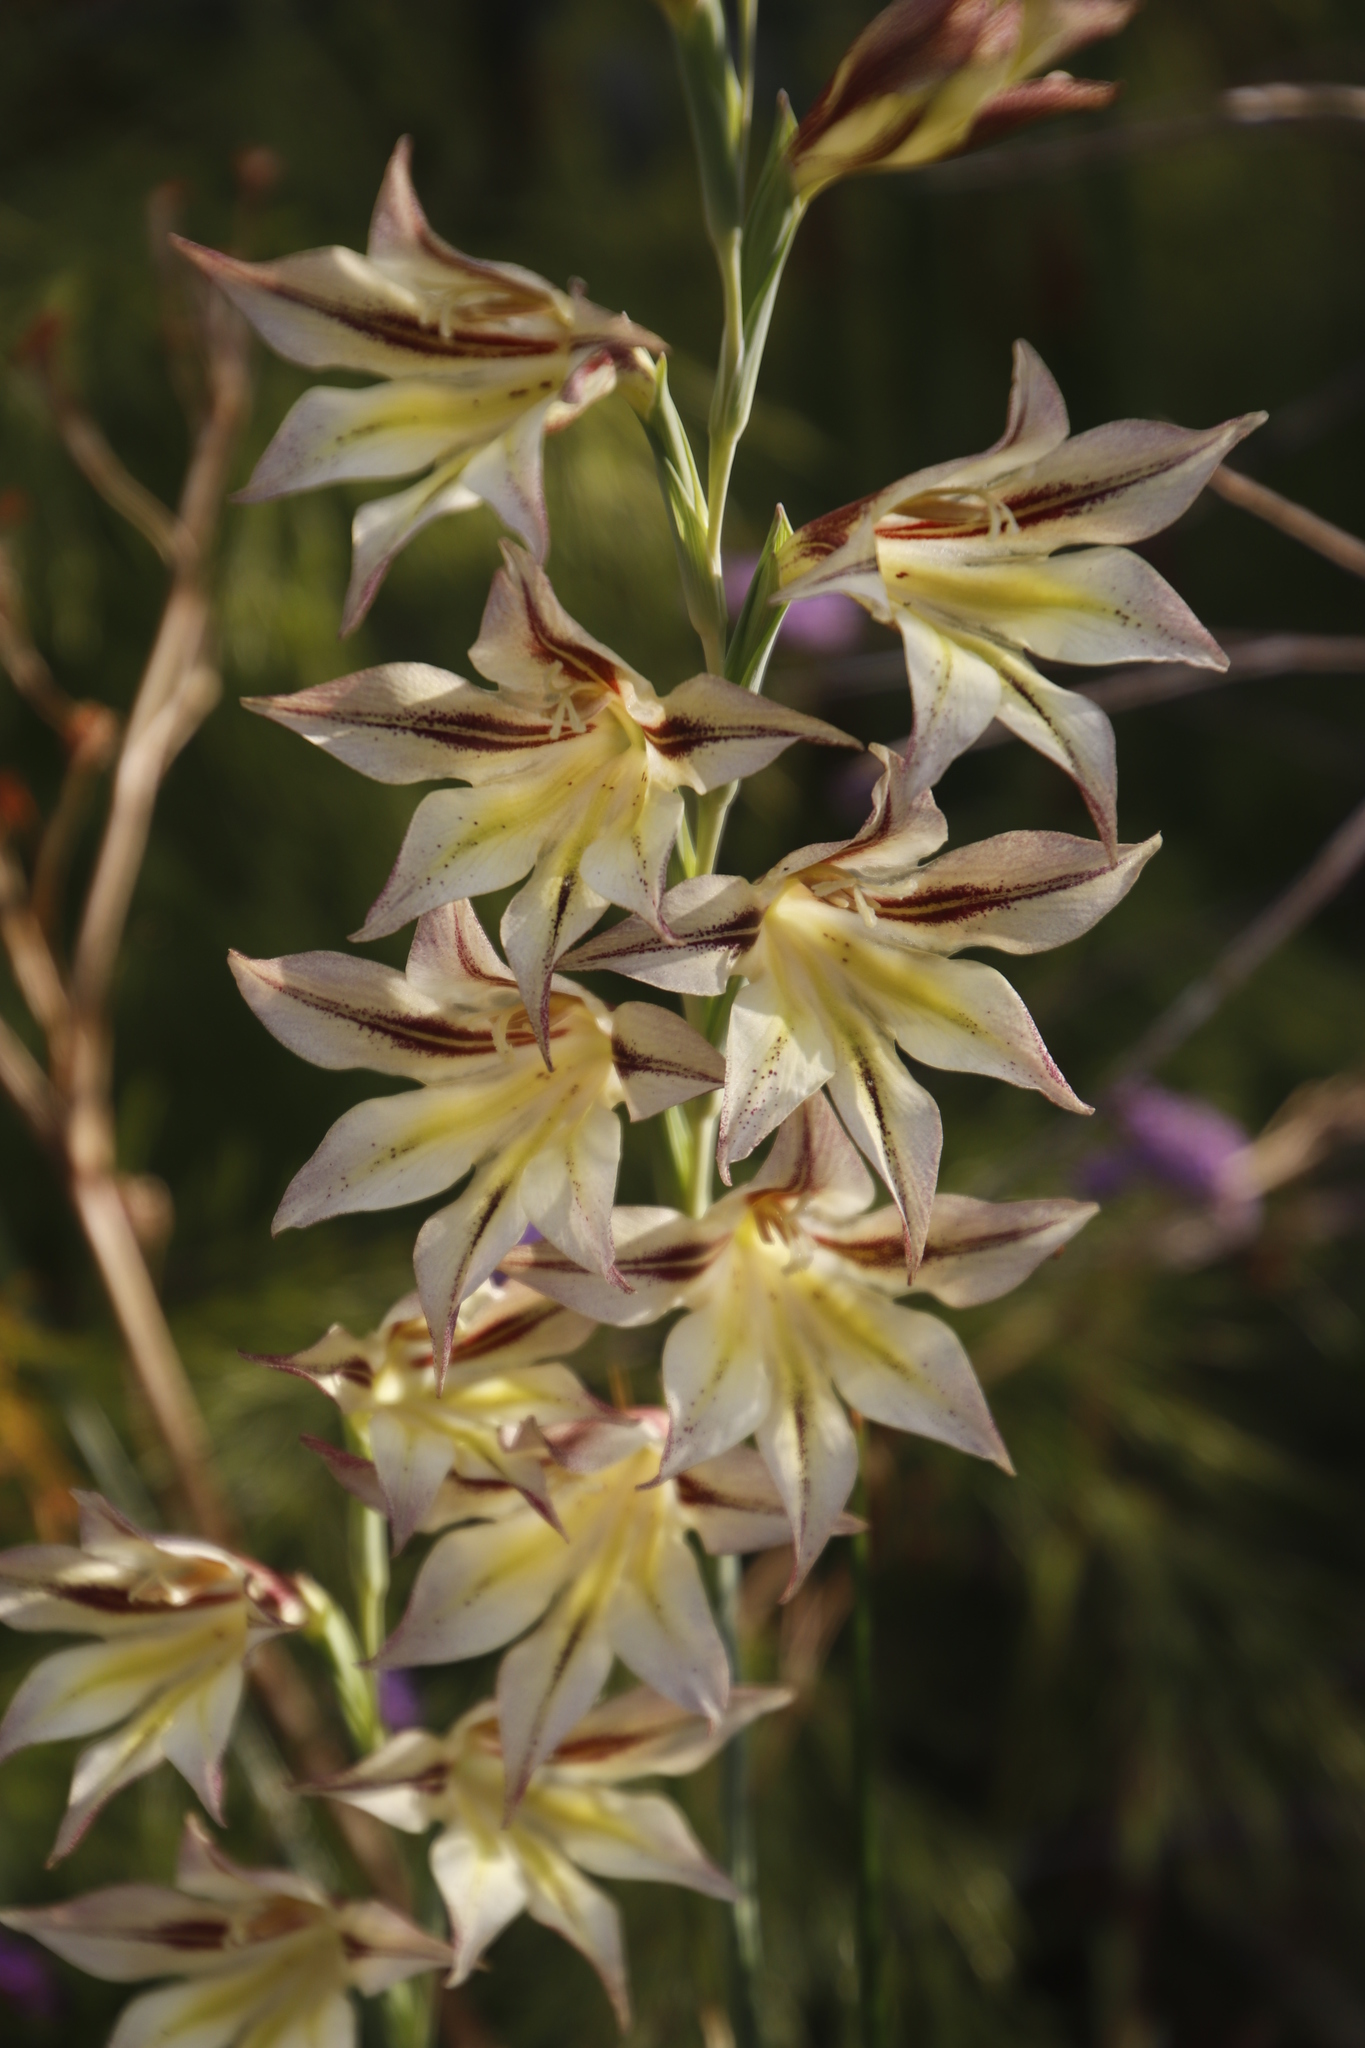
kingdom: Plantae
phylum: Tracheophyta
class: Liliopsida
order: Asparagales
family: Iridaceae
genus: Gladiolus
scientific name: Gladiolus tristis
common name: Ever-flowering gladiolus
